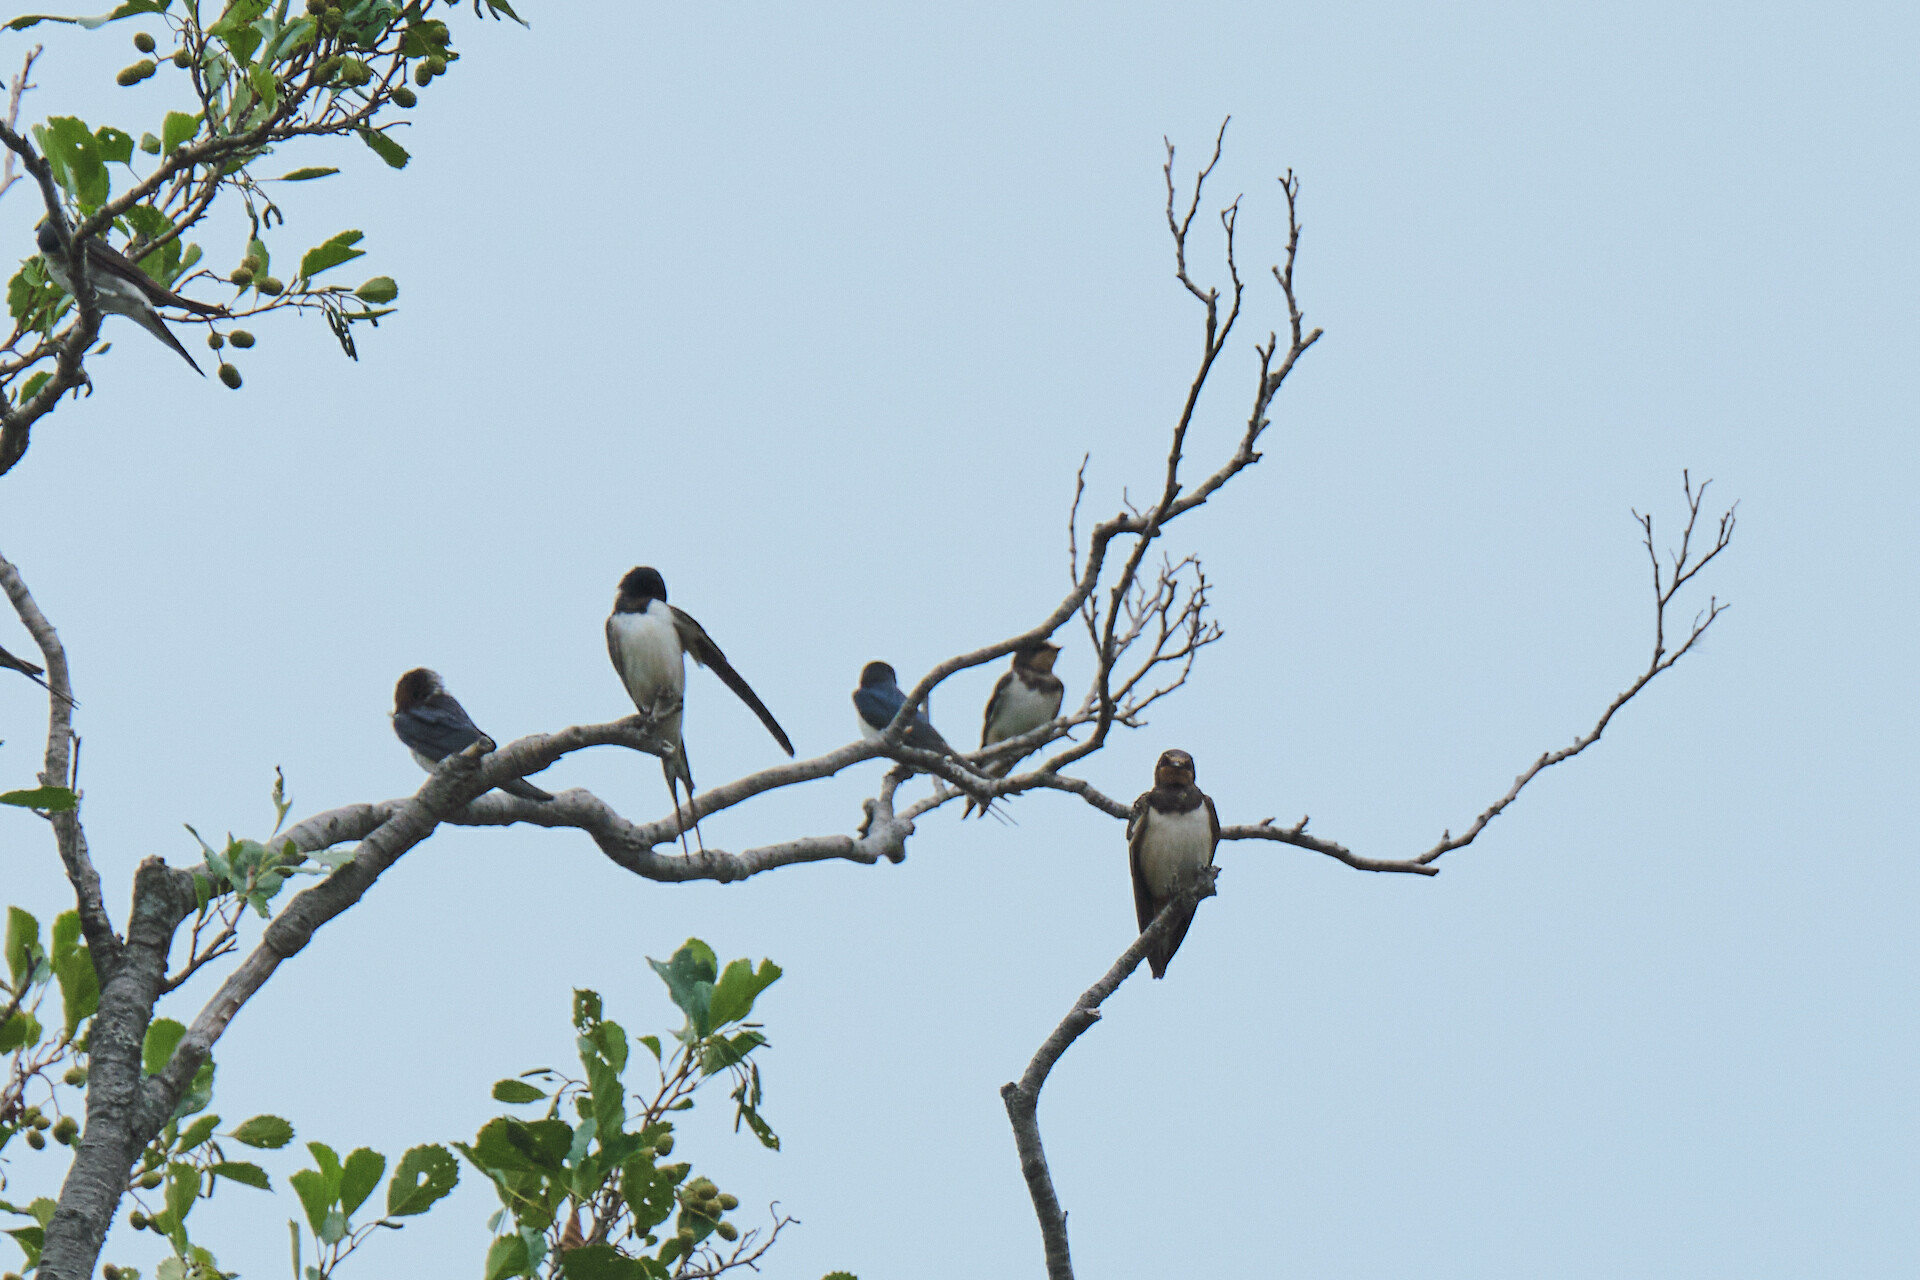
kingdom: Animalia
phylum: Chordata
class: Aves
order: Passeriformes
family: Hirundinidae
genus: Hirundo
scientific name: Hirundo rustica
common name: Barn swallow
